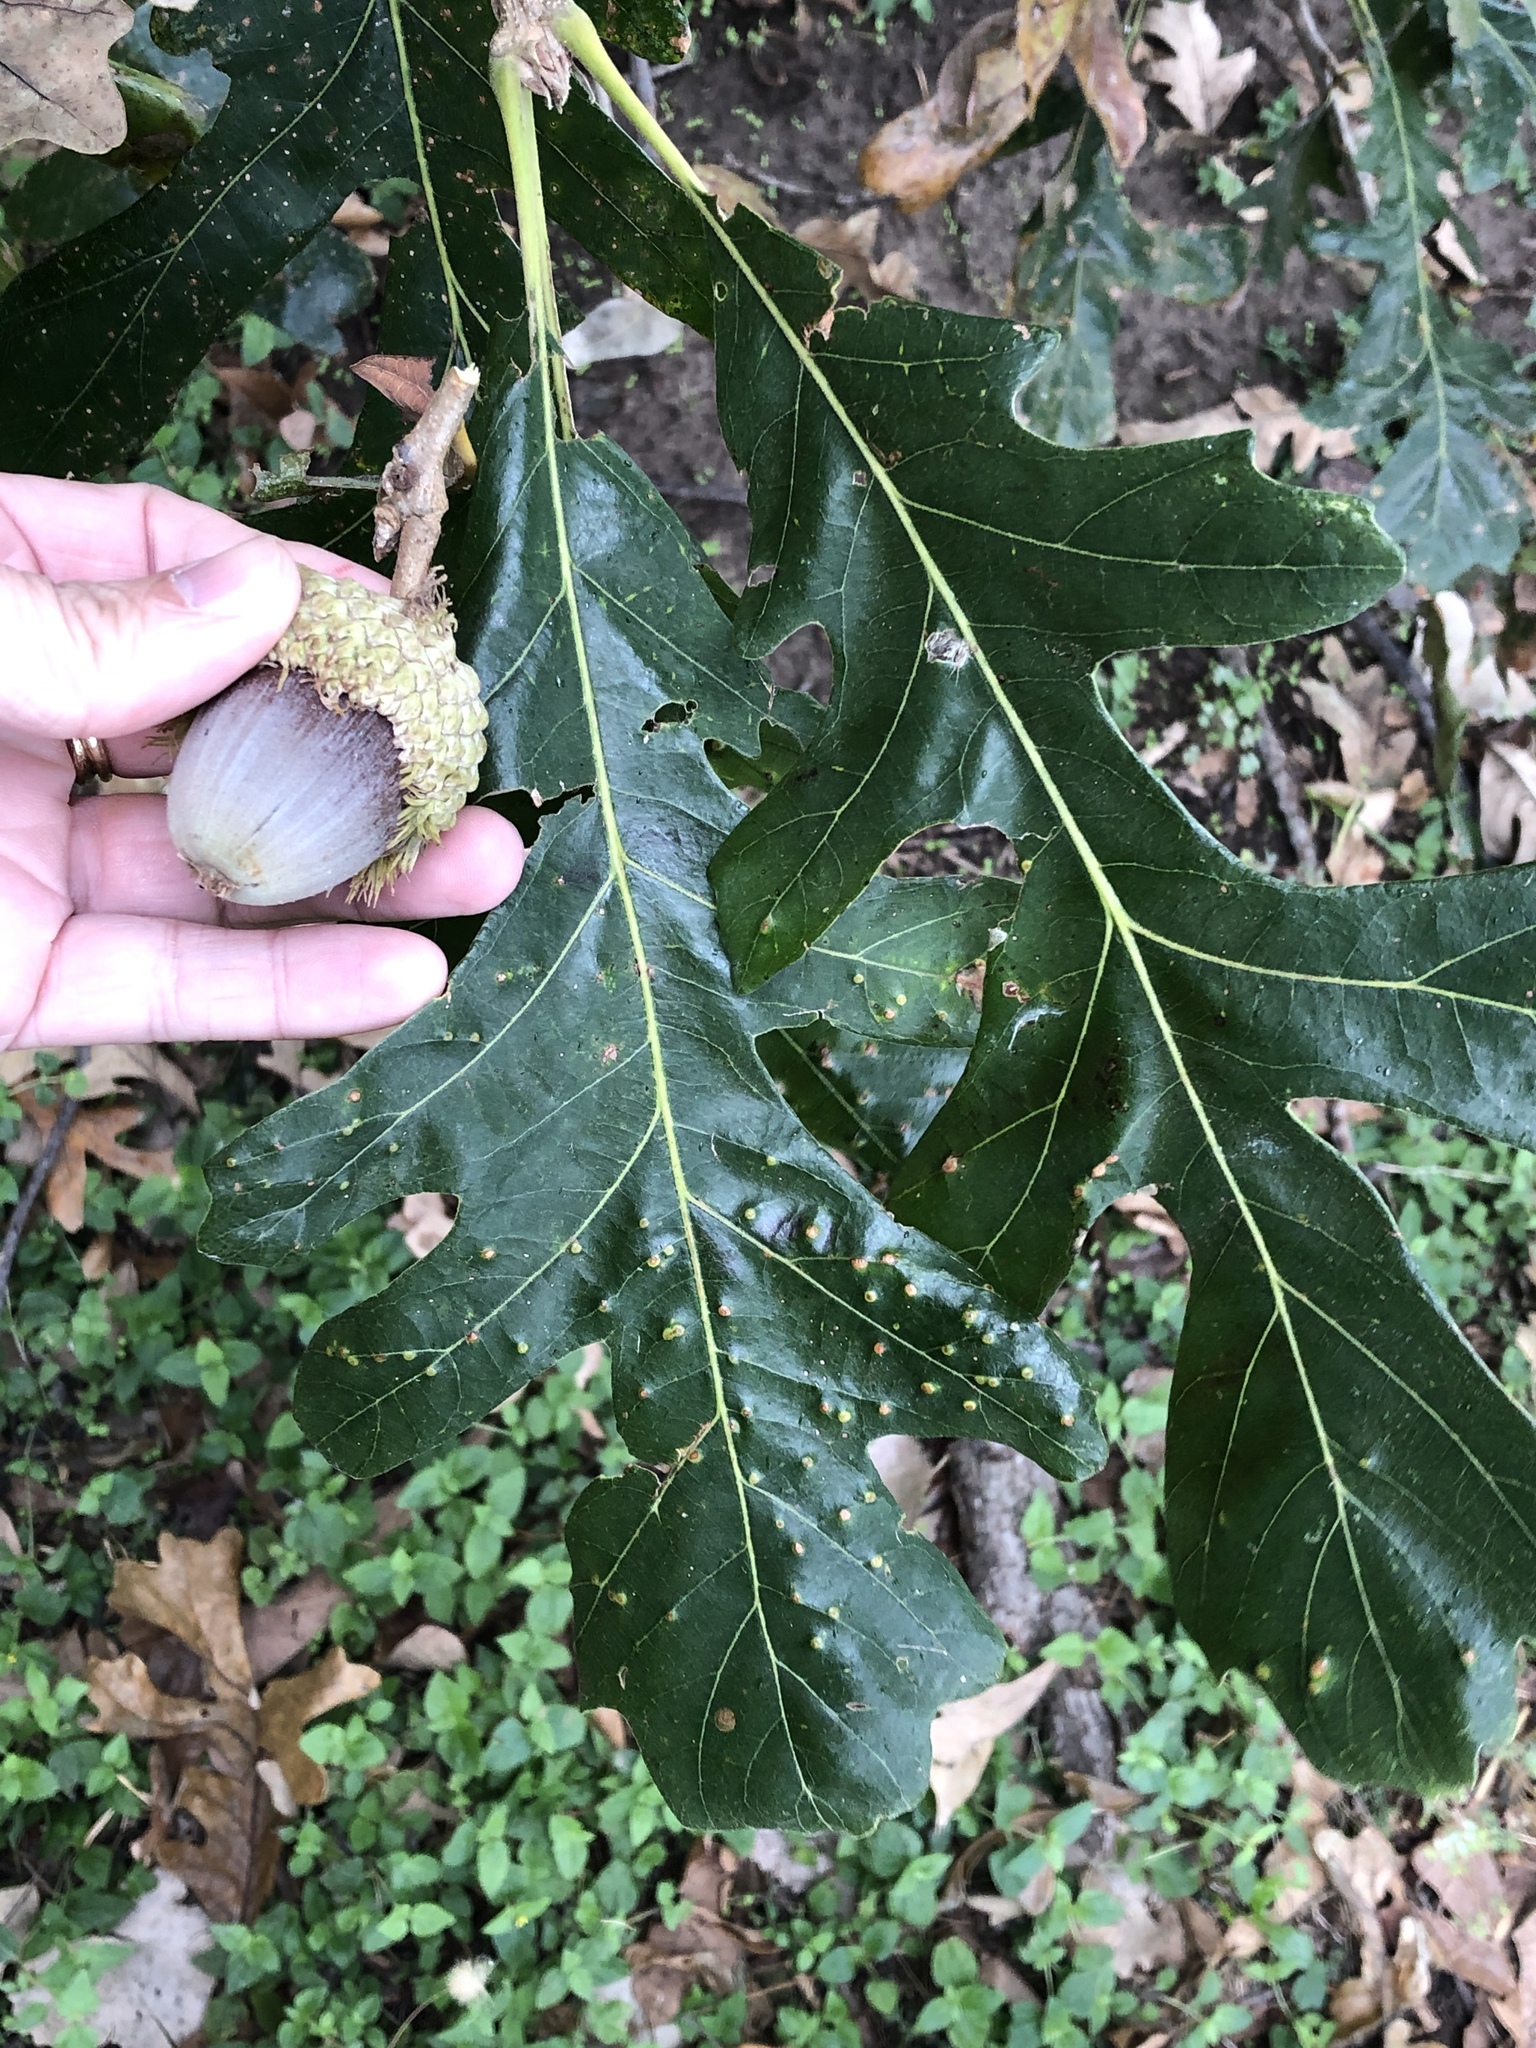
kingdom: Plantae
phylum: Tracheophyta
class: Magnoliopsida
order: Fagales
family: Fagaceae
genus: Quercus
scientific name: Quercus macrocarpa
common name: Bur oak
